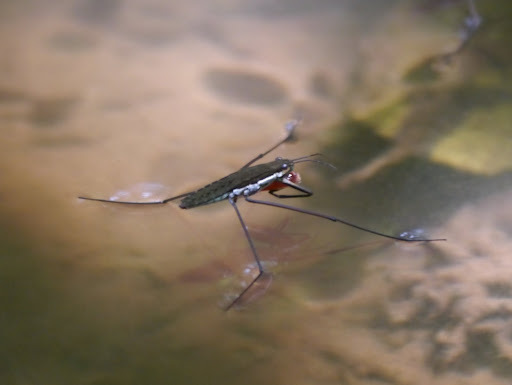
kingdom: Animalia
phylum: Arthropoda
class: Insecta
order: Hemiptera
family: Gerridae
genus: Aquarius
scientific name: Aquarius
